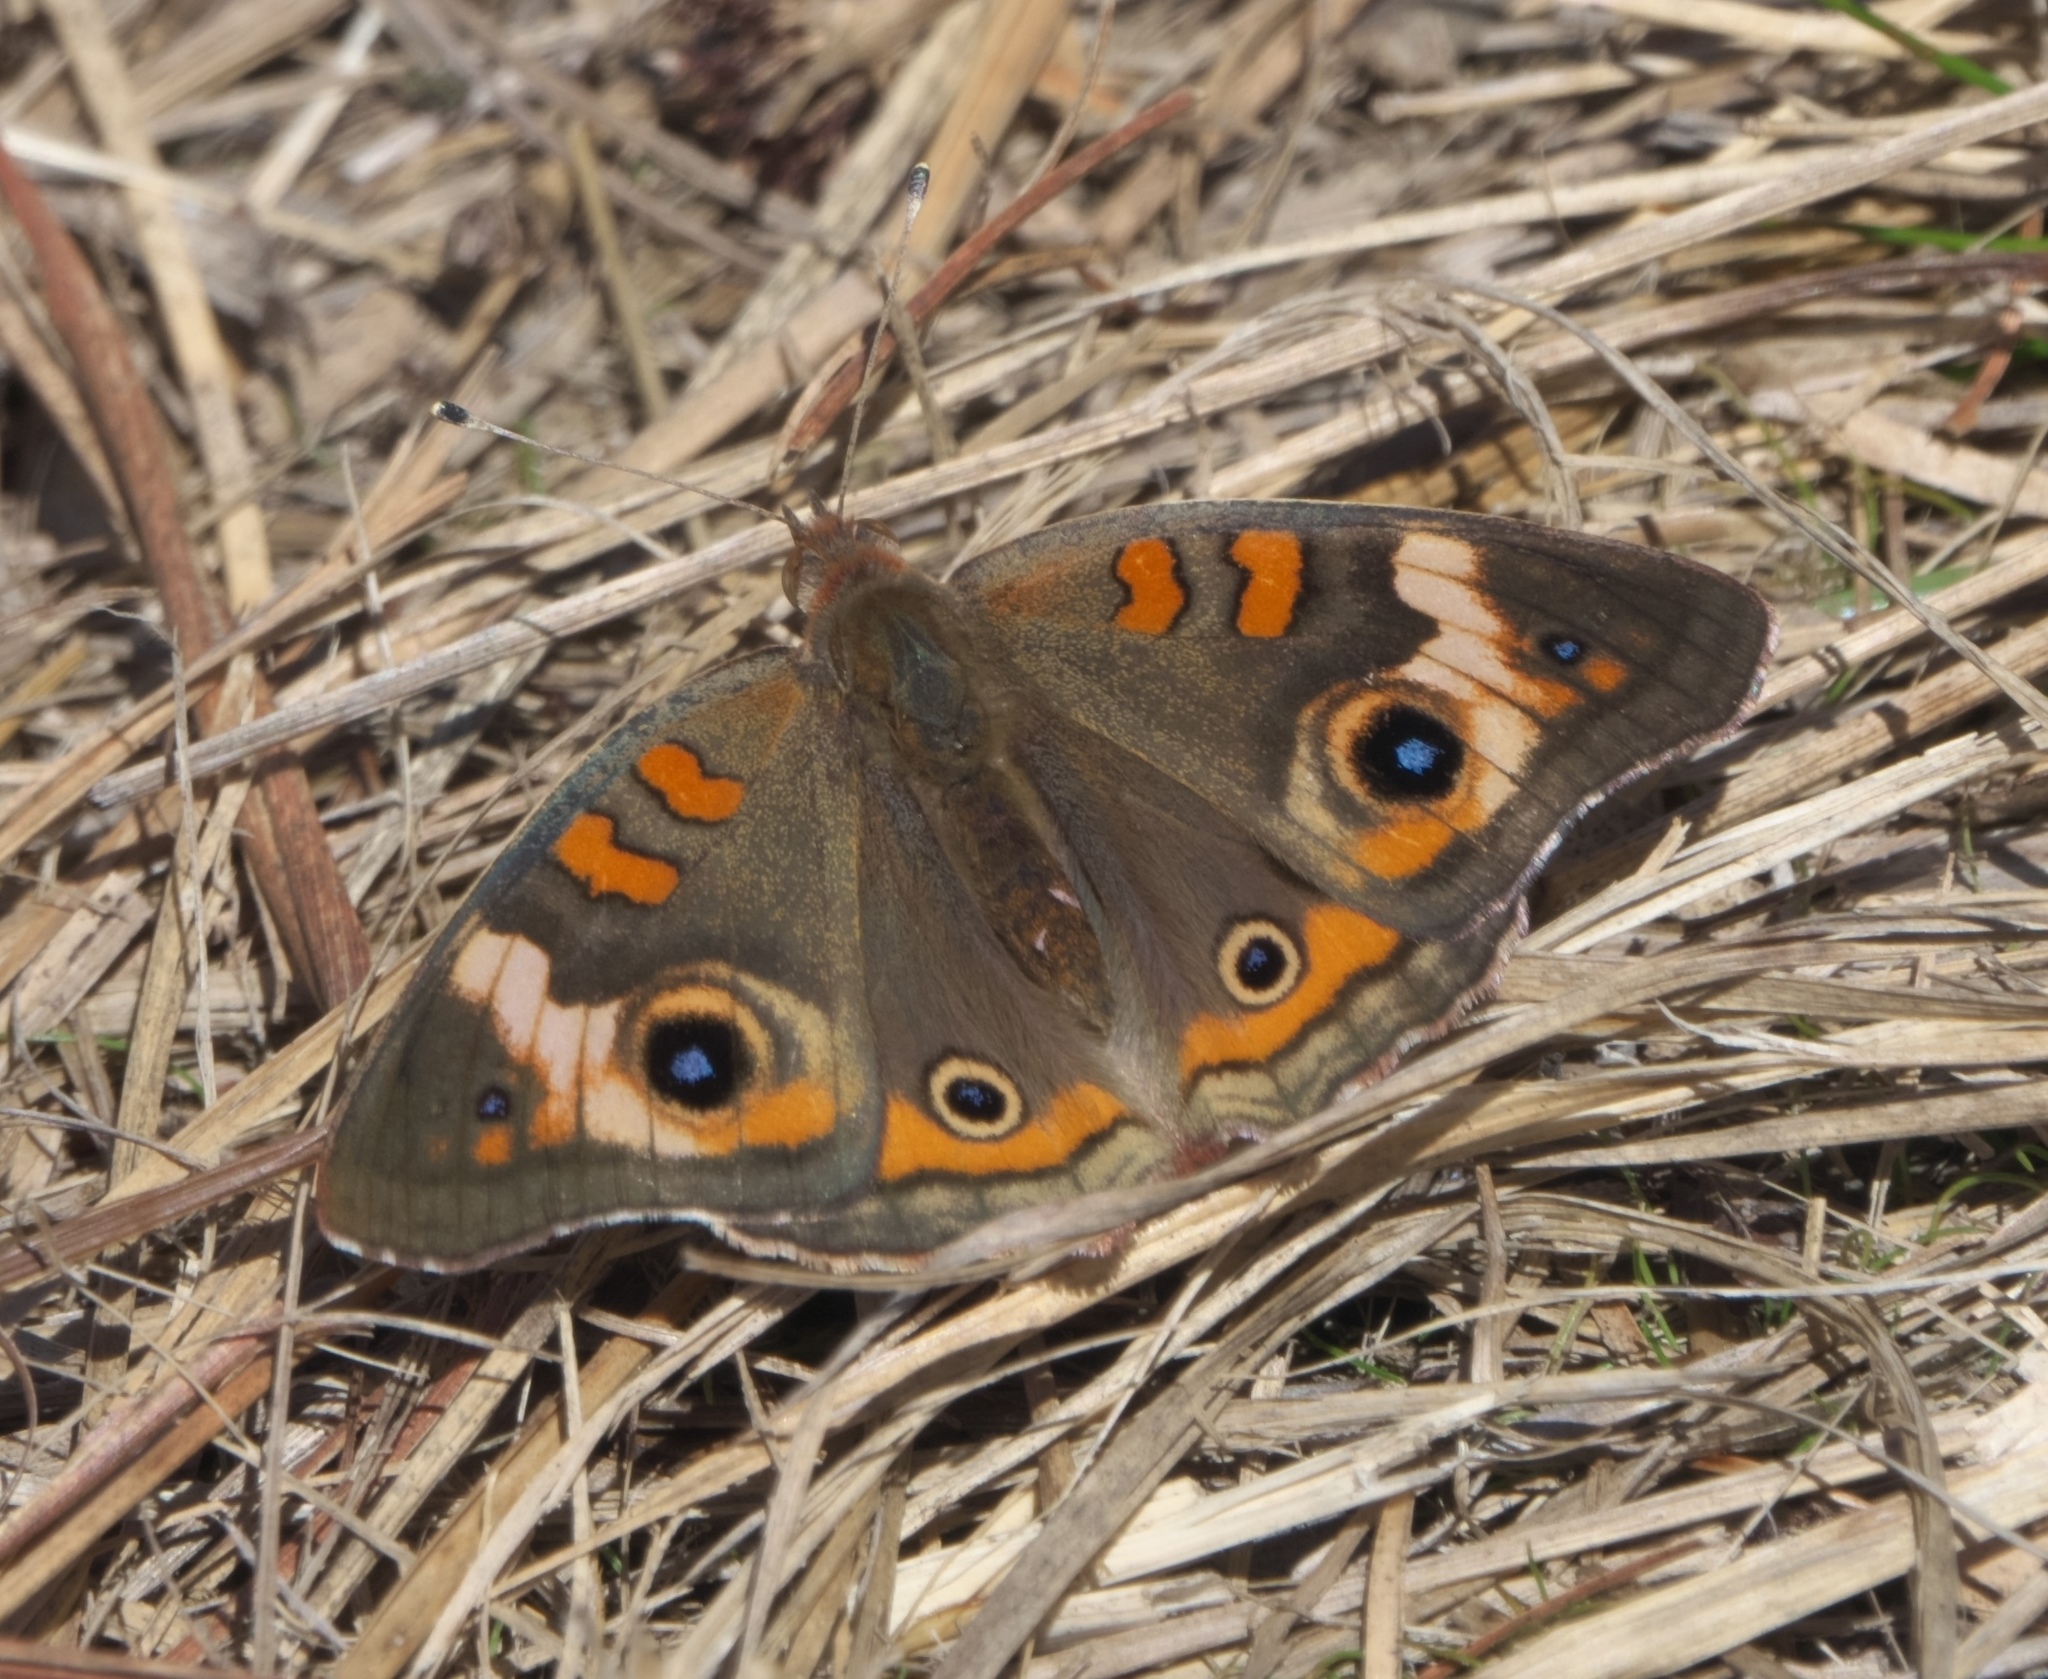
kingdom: Animalia
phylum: Arthropoda
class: Insecta
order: Lepidoptera
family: Nymphalidae
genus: Junonia
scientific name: Junonia coenia
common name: Common buckeye
